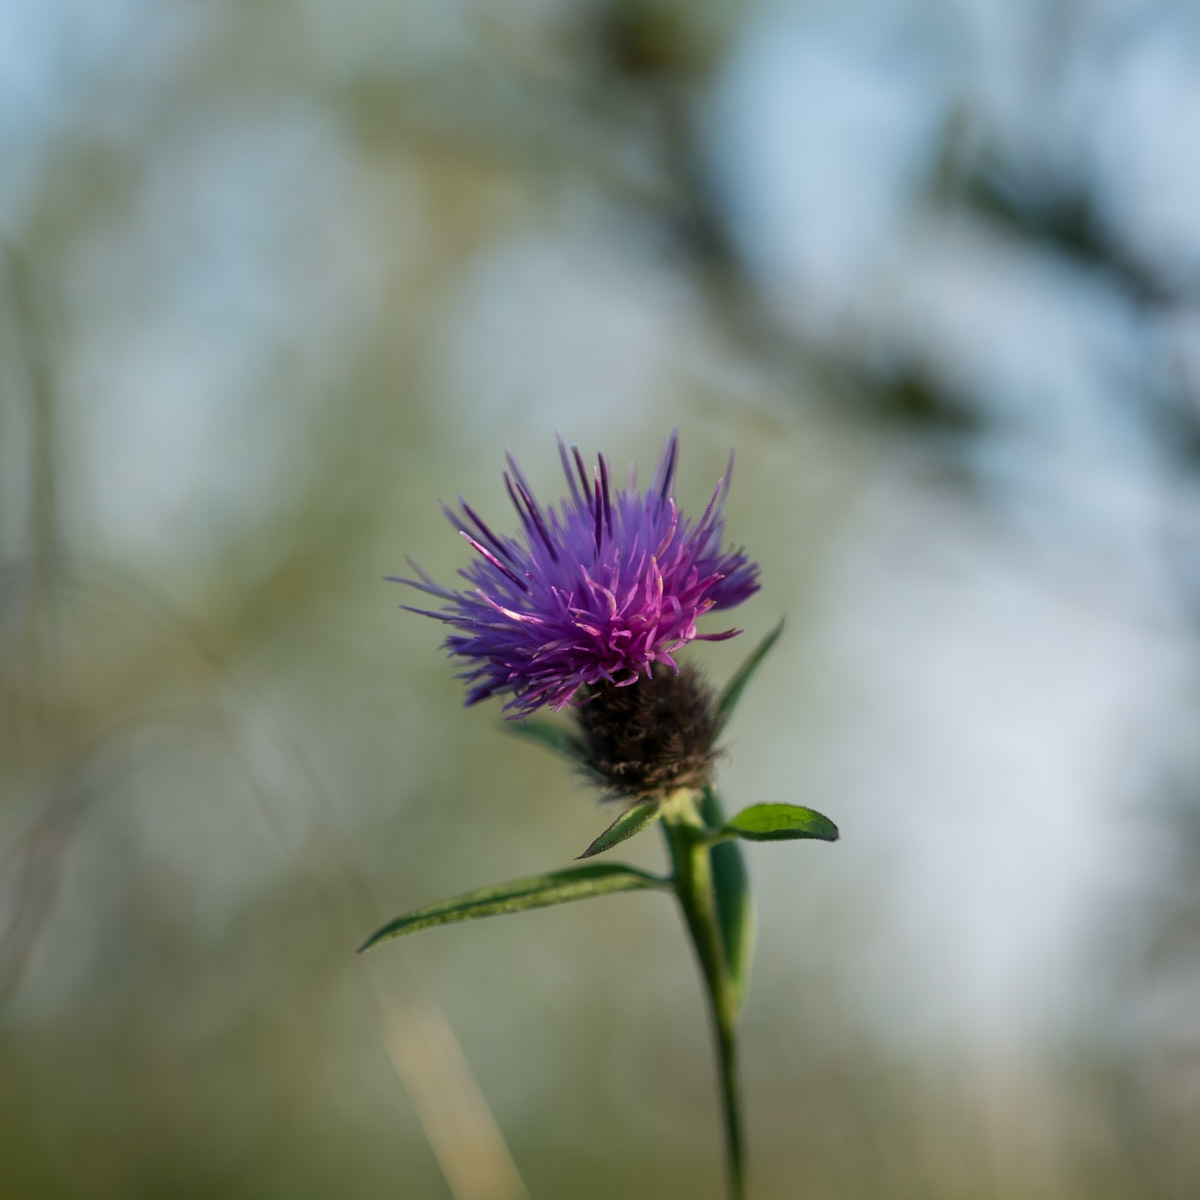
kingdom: Plantae
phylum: Tracheophyta
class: Magnoliopsida
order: Asterales
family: Asteraceae
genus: Centaurea
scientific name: Centaurea nigra
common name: Lesser knapweed
